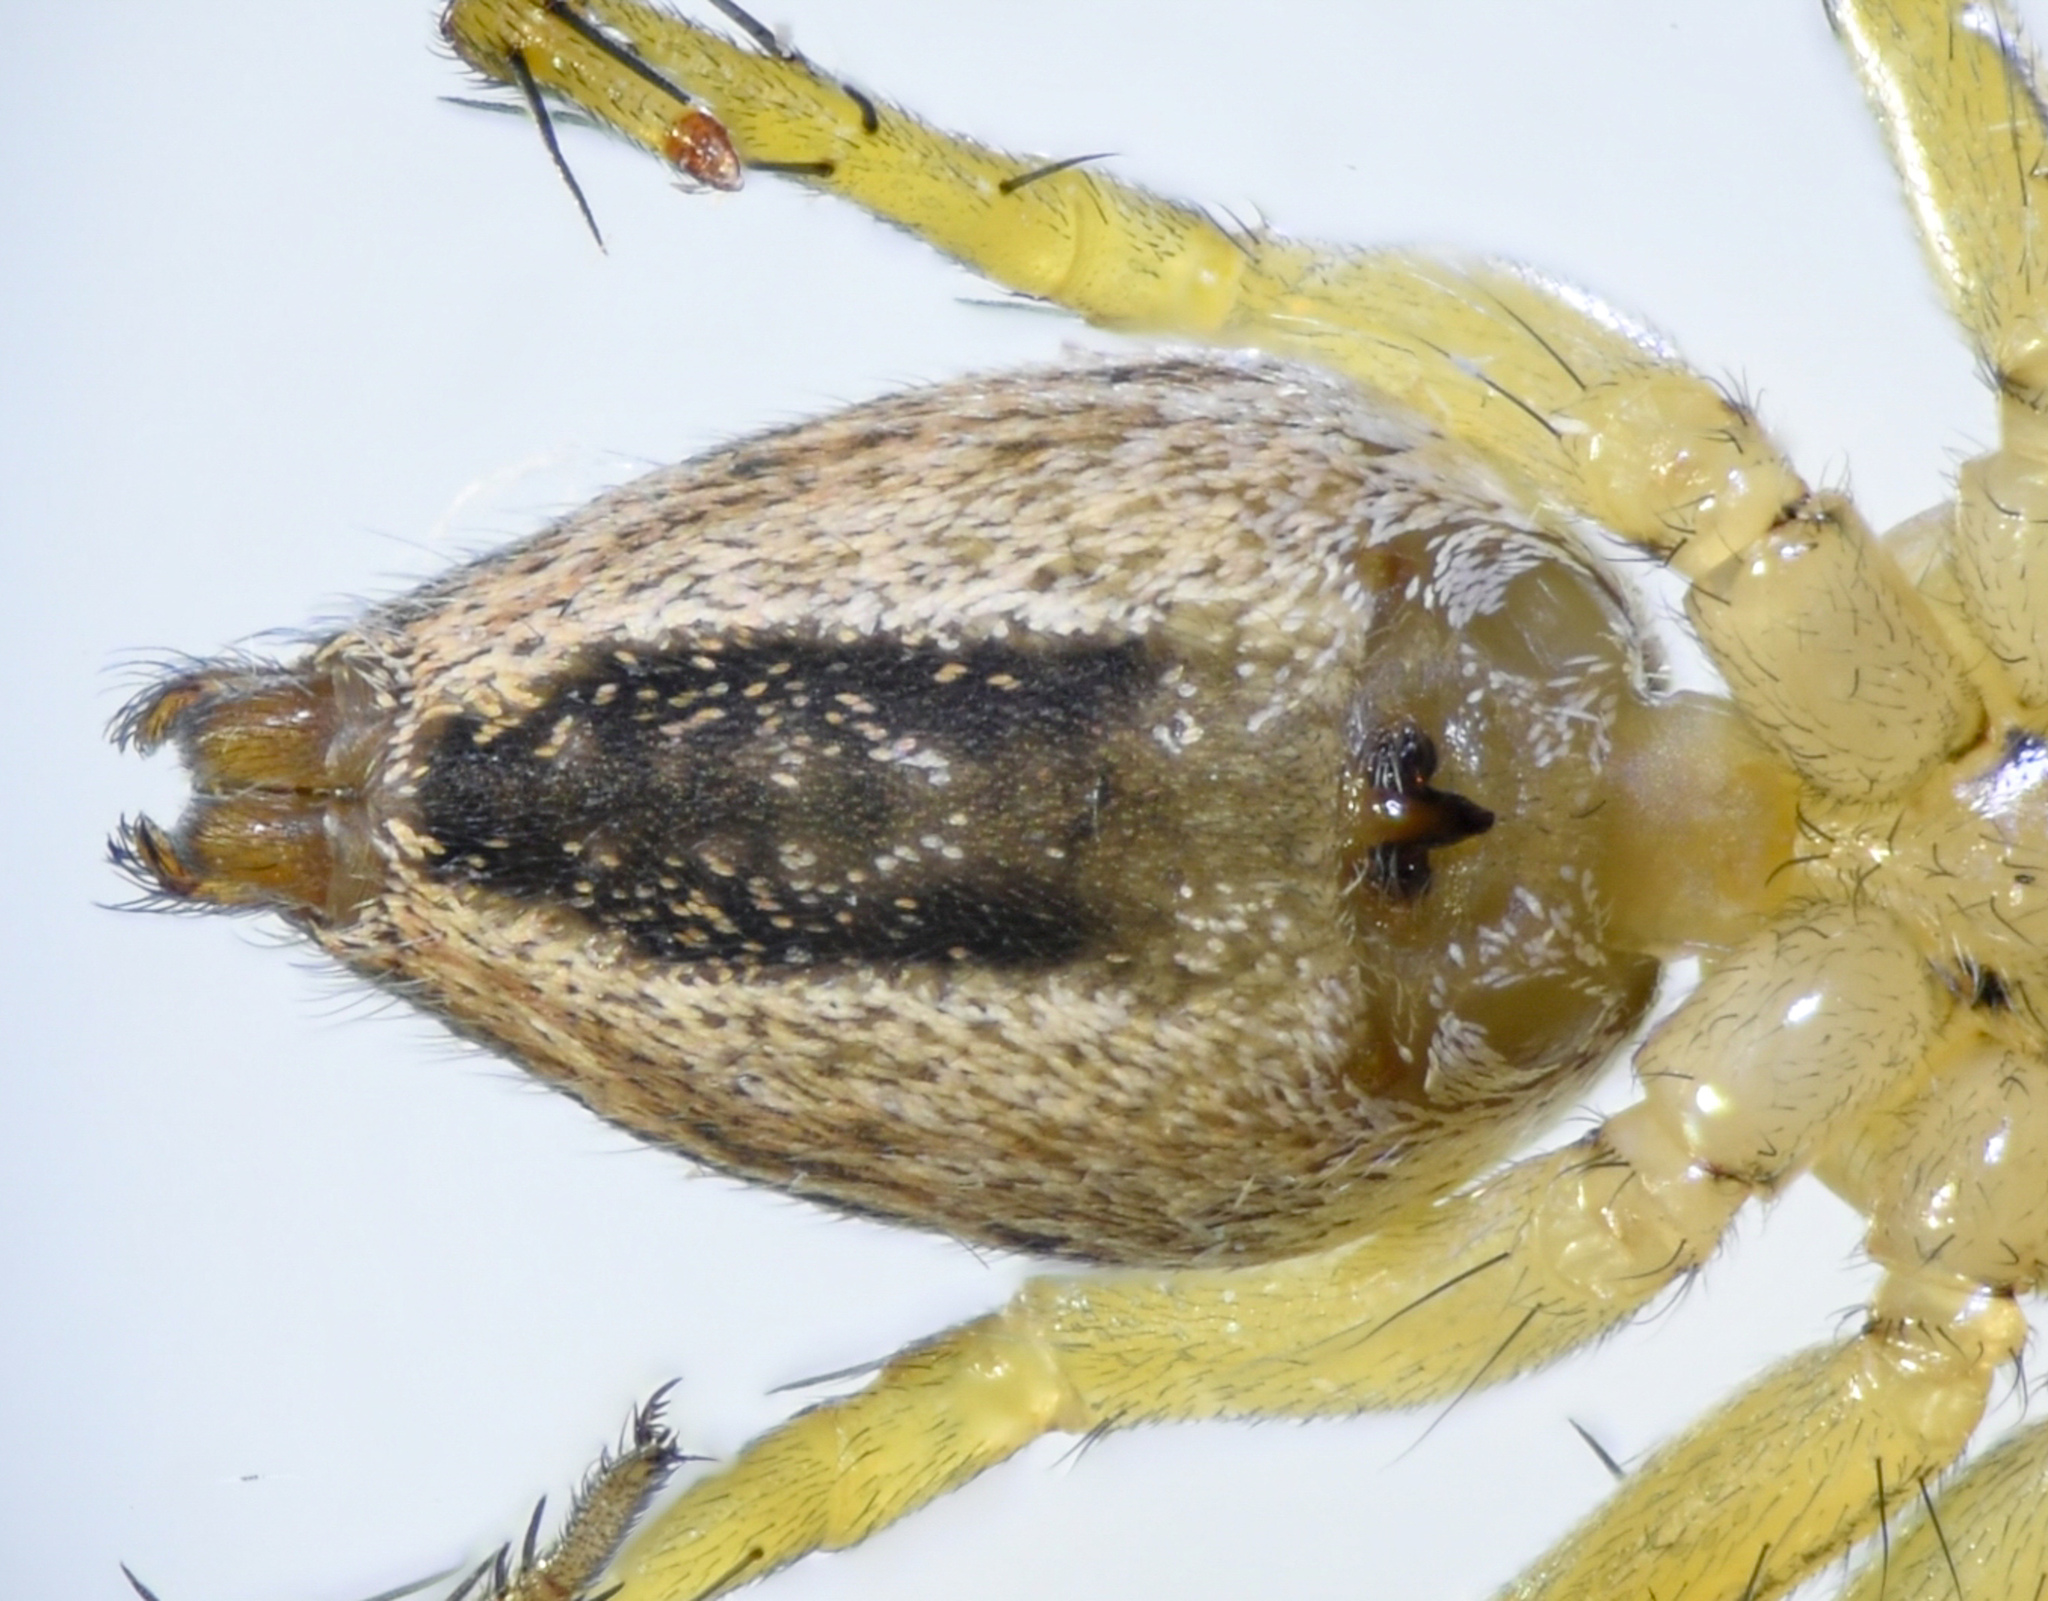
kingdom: Animalia
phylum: Arthropoda
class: Arachnida
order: Araneae
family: Oxyopidae
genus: Oxyopes
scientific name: Oxyopes salticus
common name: Lynx spiders
